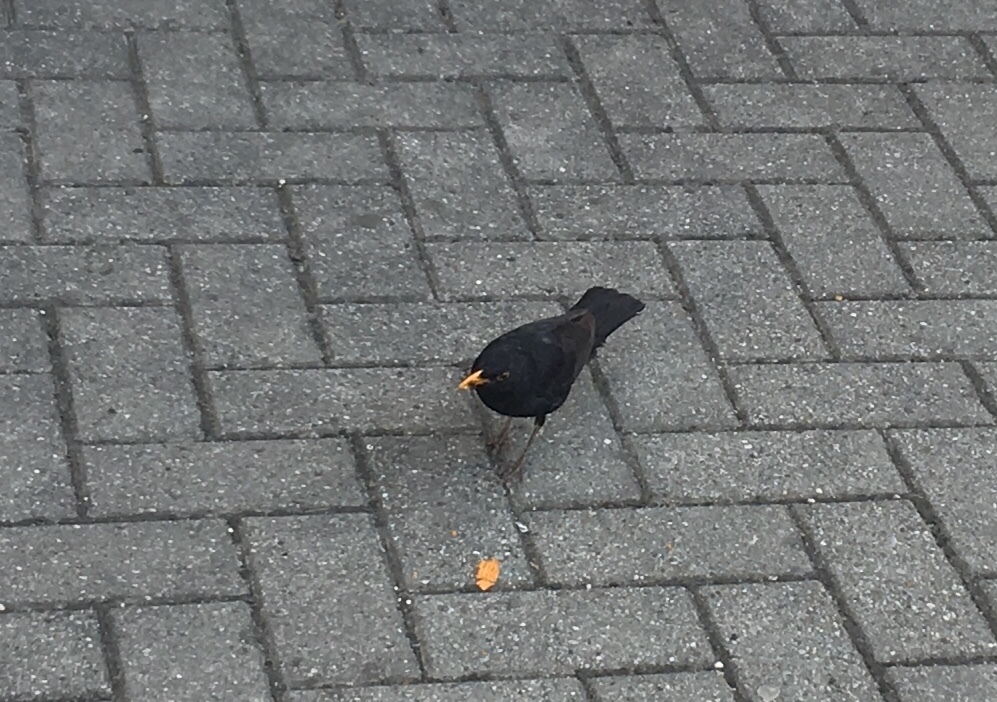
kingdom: Animalia
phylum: Chordata
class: Aves
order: Passeriformes
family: Turdidae
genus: Turdus
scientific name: Turdus merula
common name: Common blackbird
